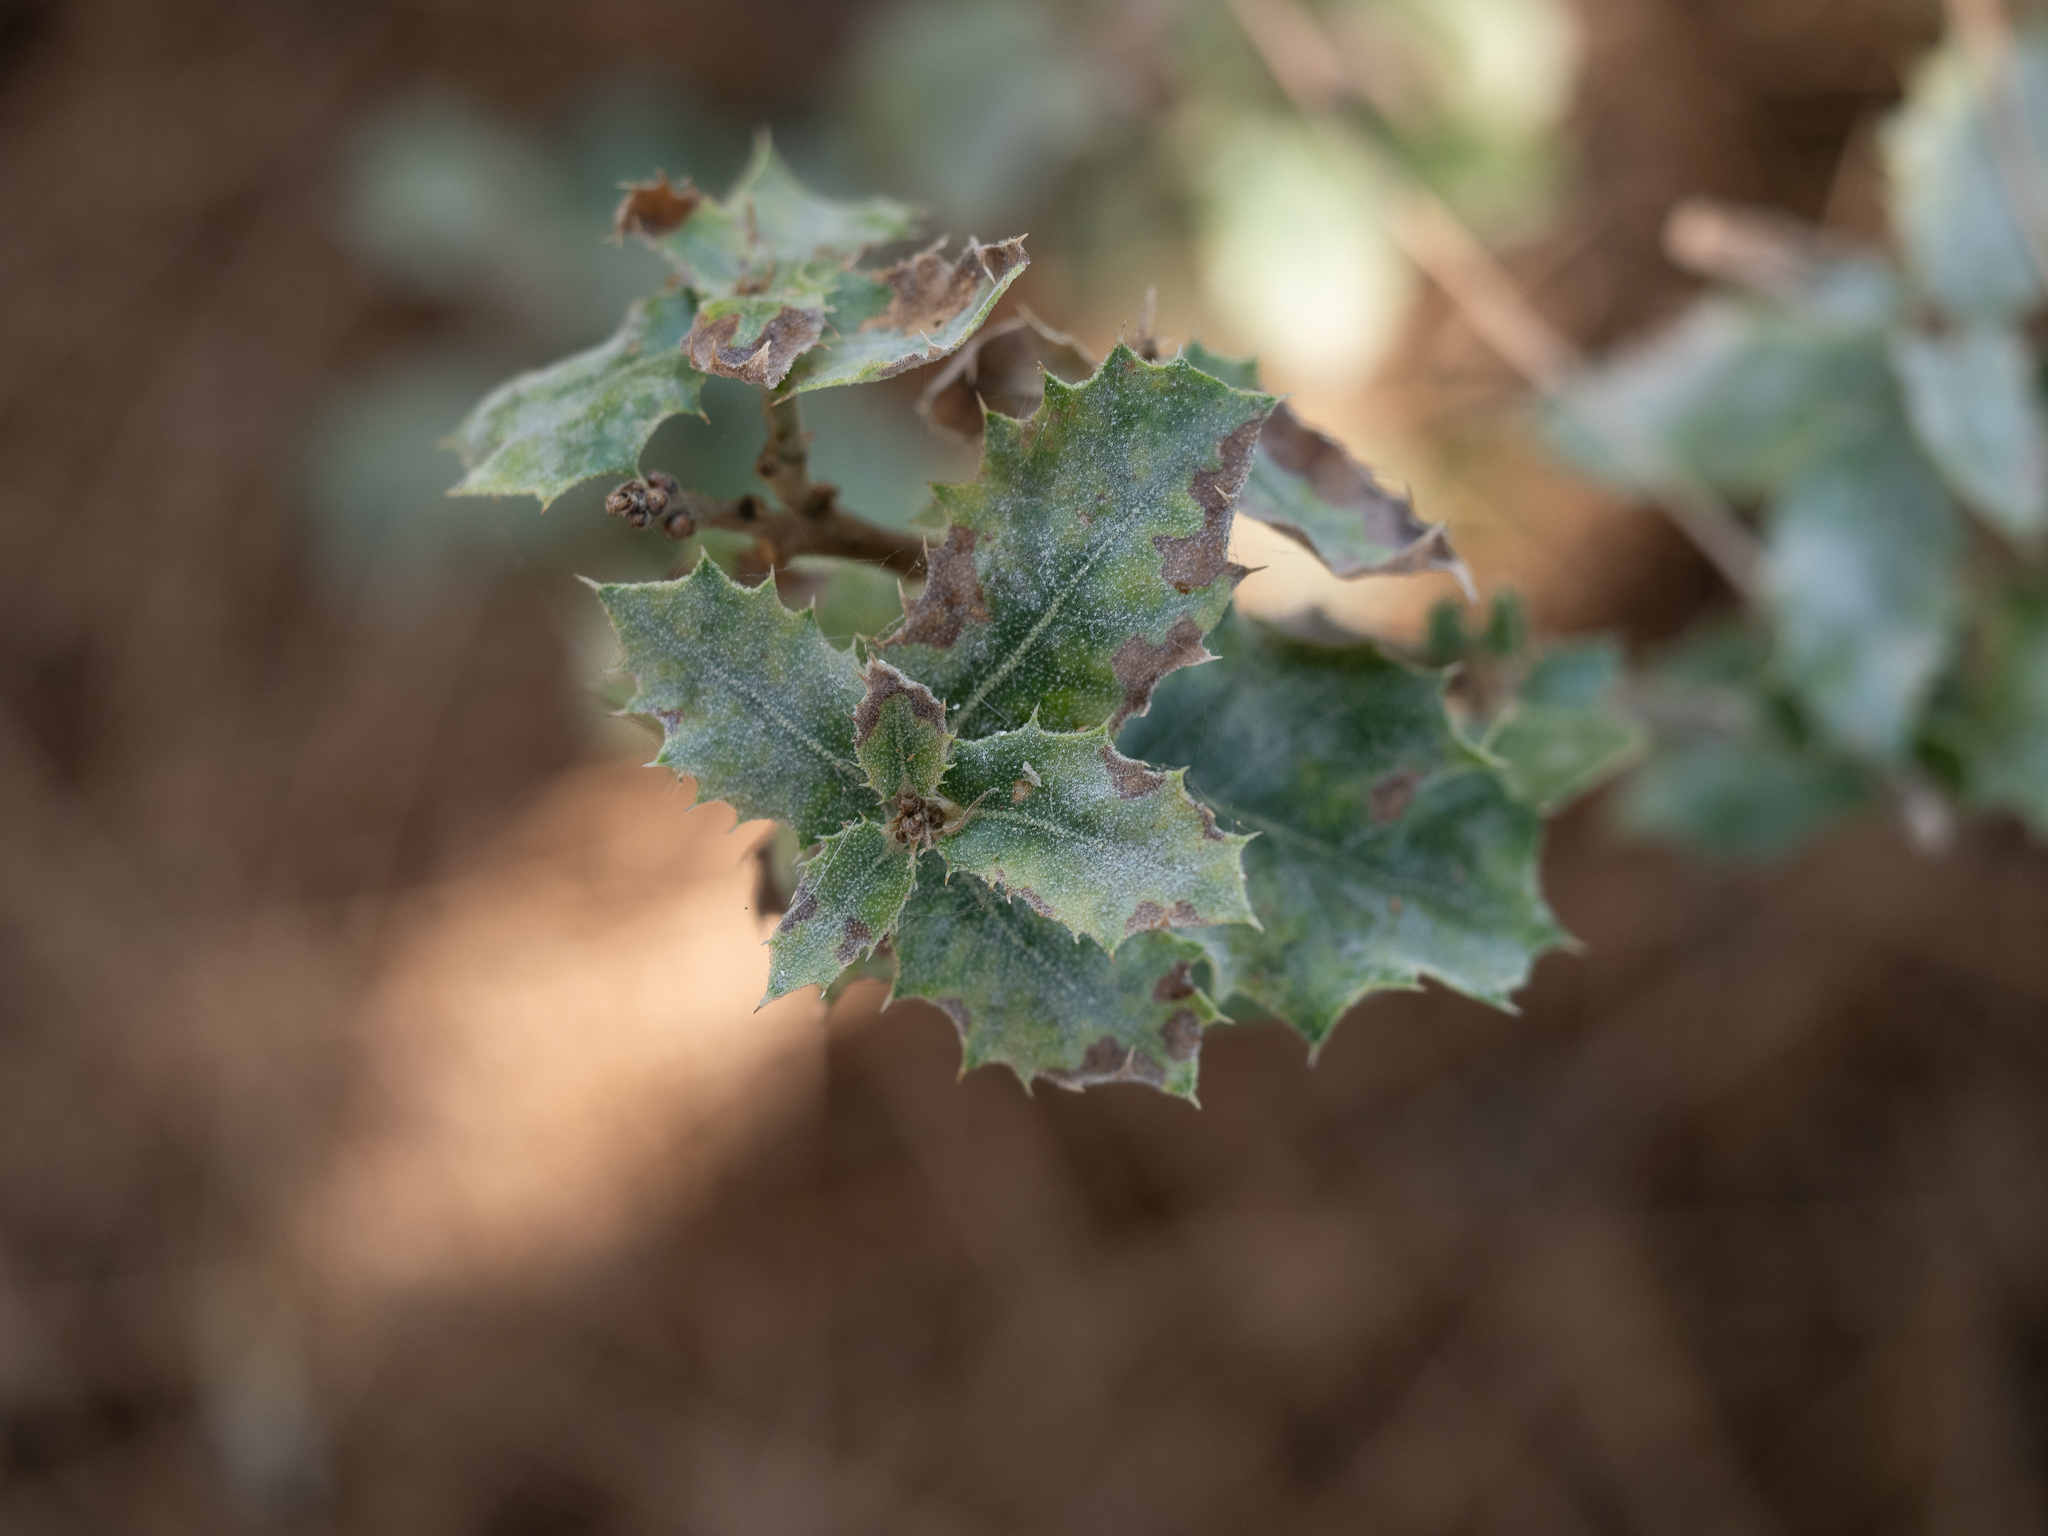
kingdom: Plantae
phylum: Tracheophyta
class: Magnoliopsida
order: Fagales
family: Fagaceae
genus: Quercus
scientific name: Quercus coccifera
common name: Kermes oak
